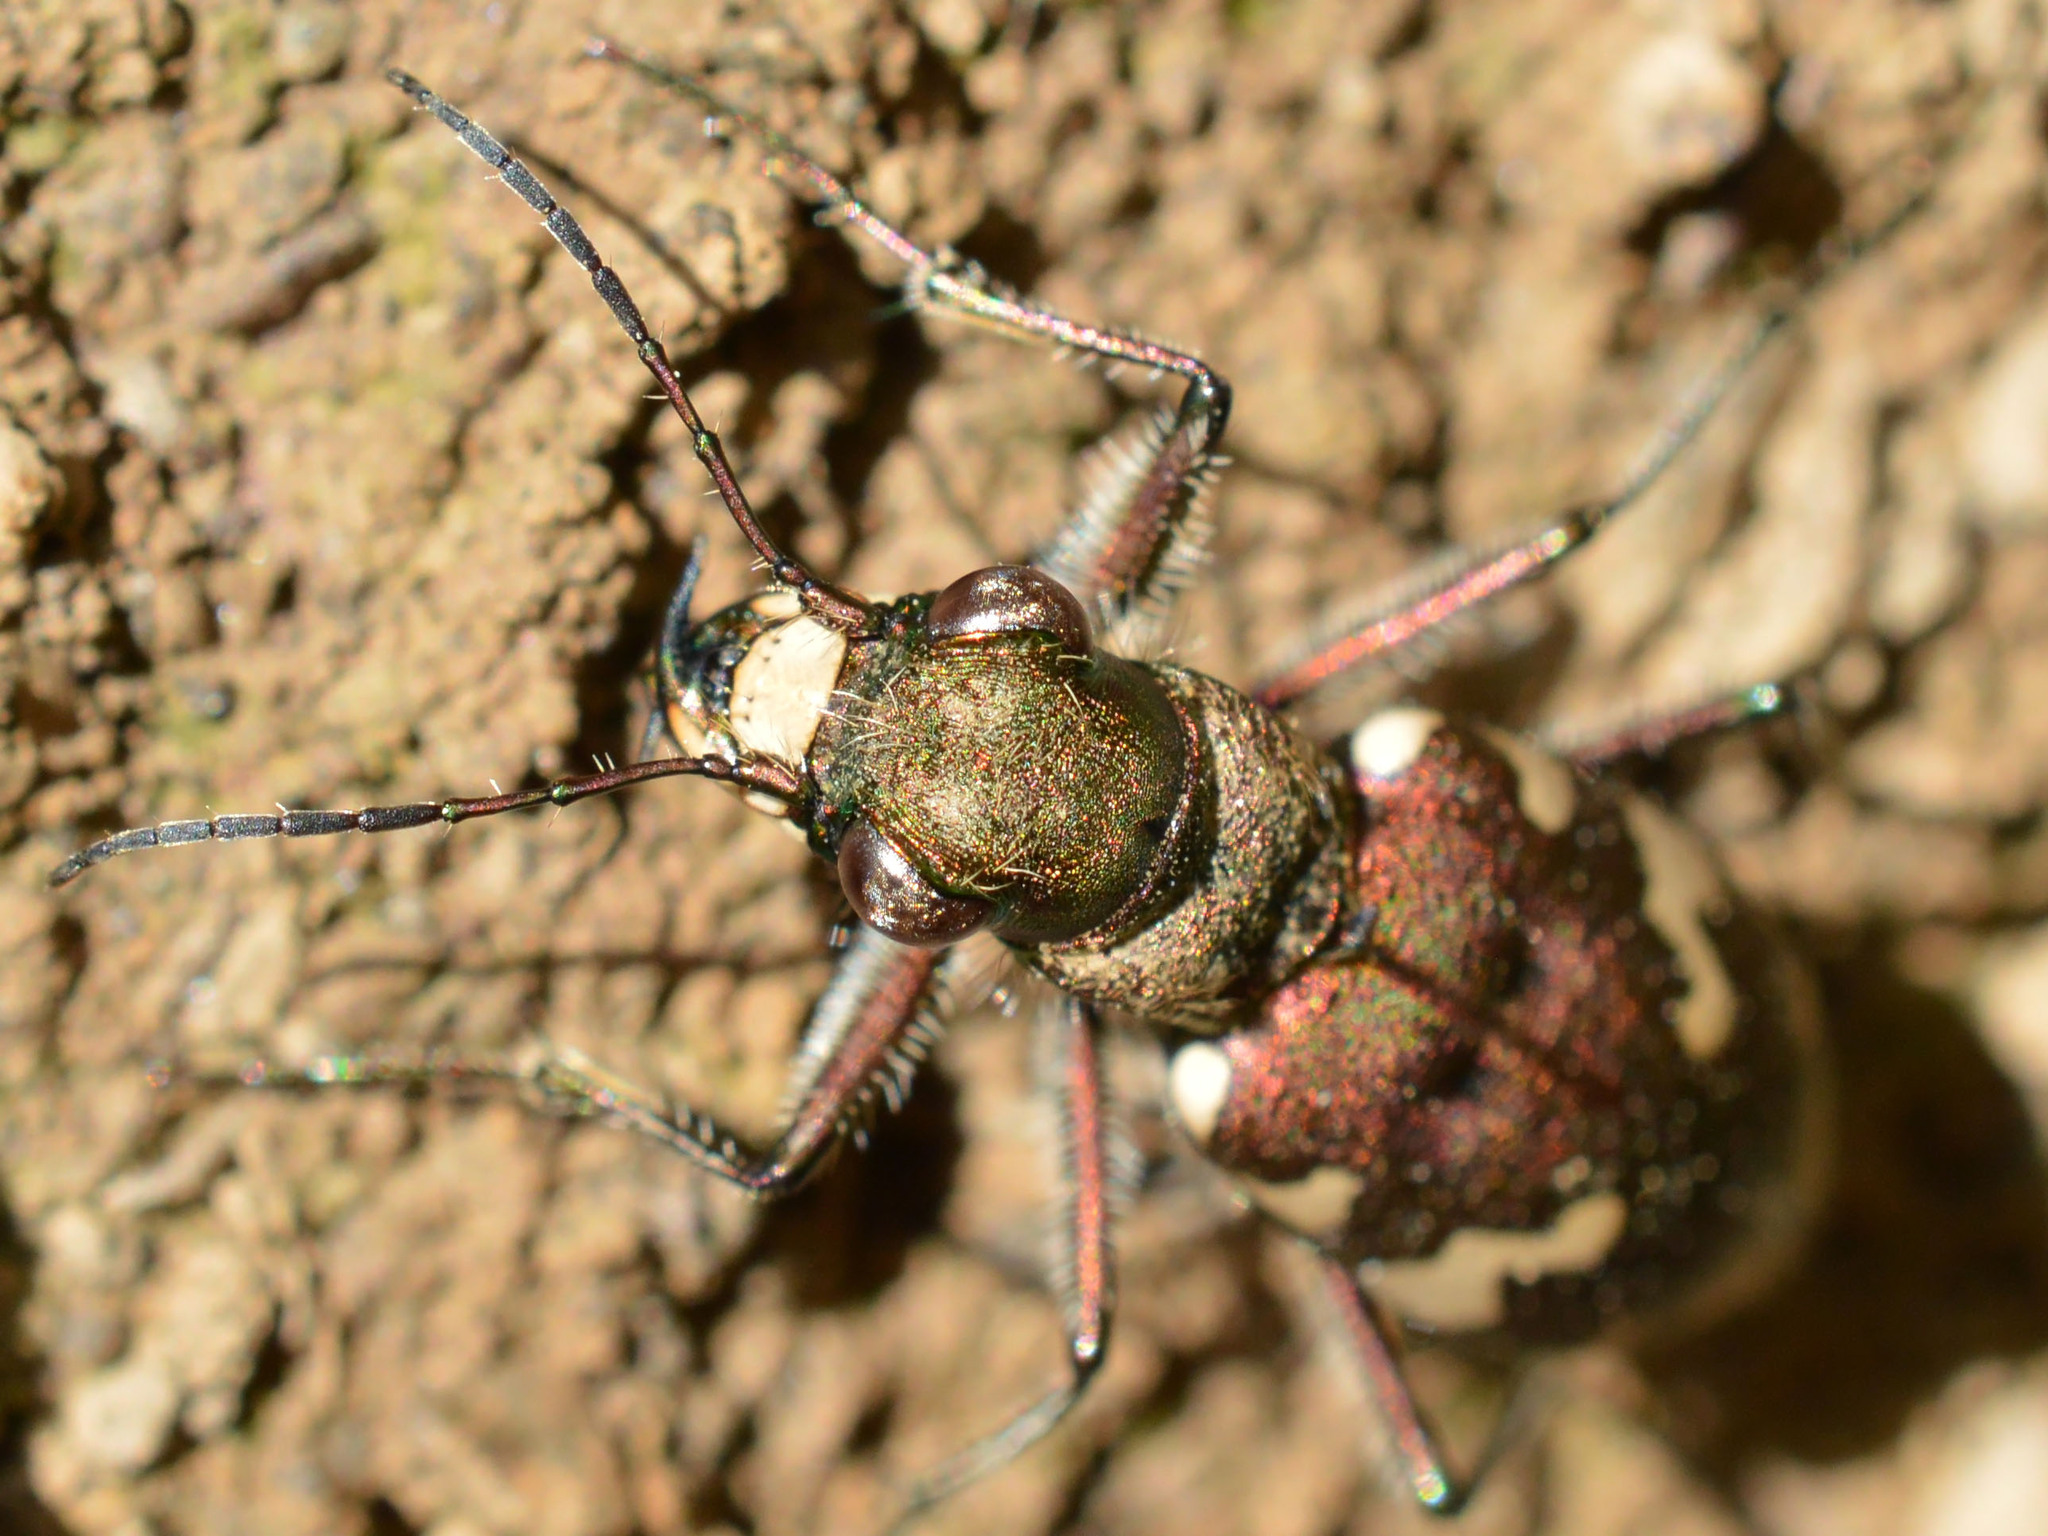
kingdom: Animalia
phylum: Arthropoda
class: Insecta
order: Coleoptera
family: Carabidae
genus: Cicindela
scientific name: Cicindela sylvicola
